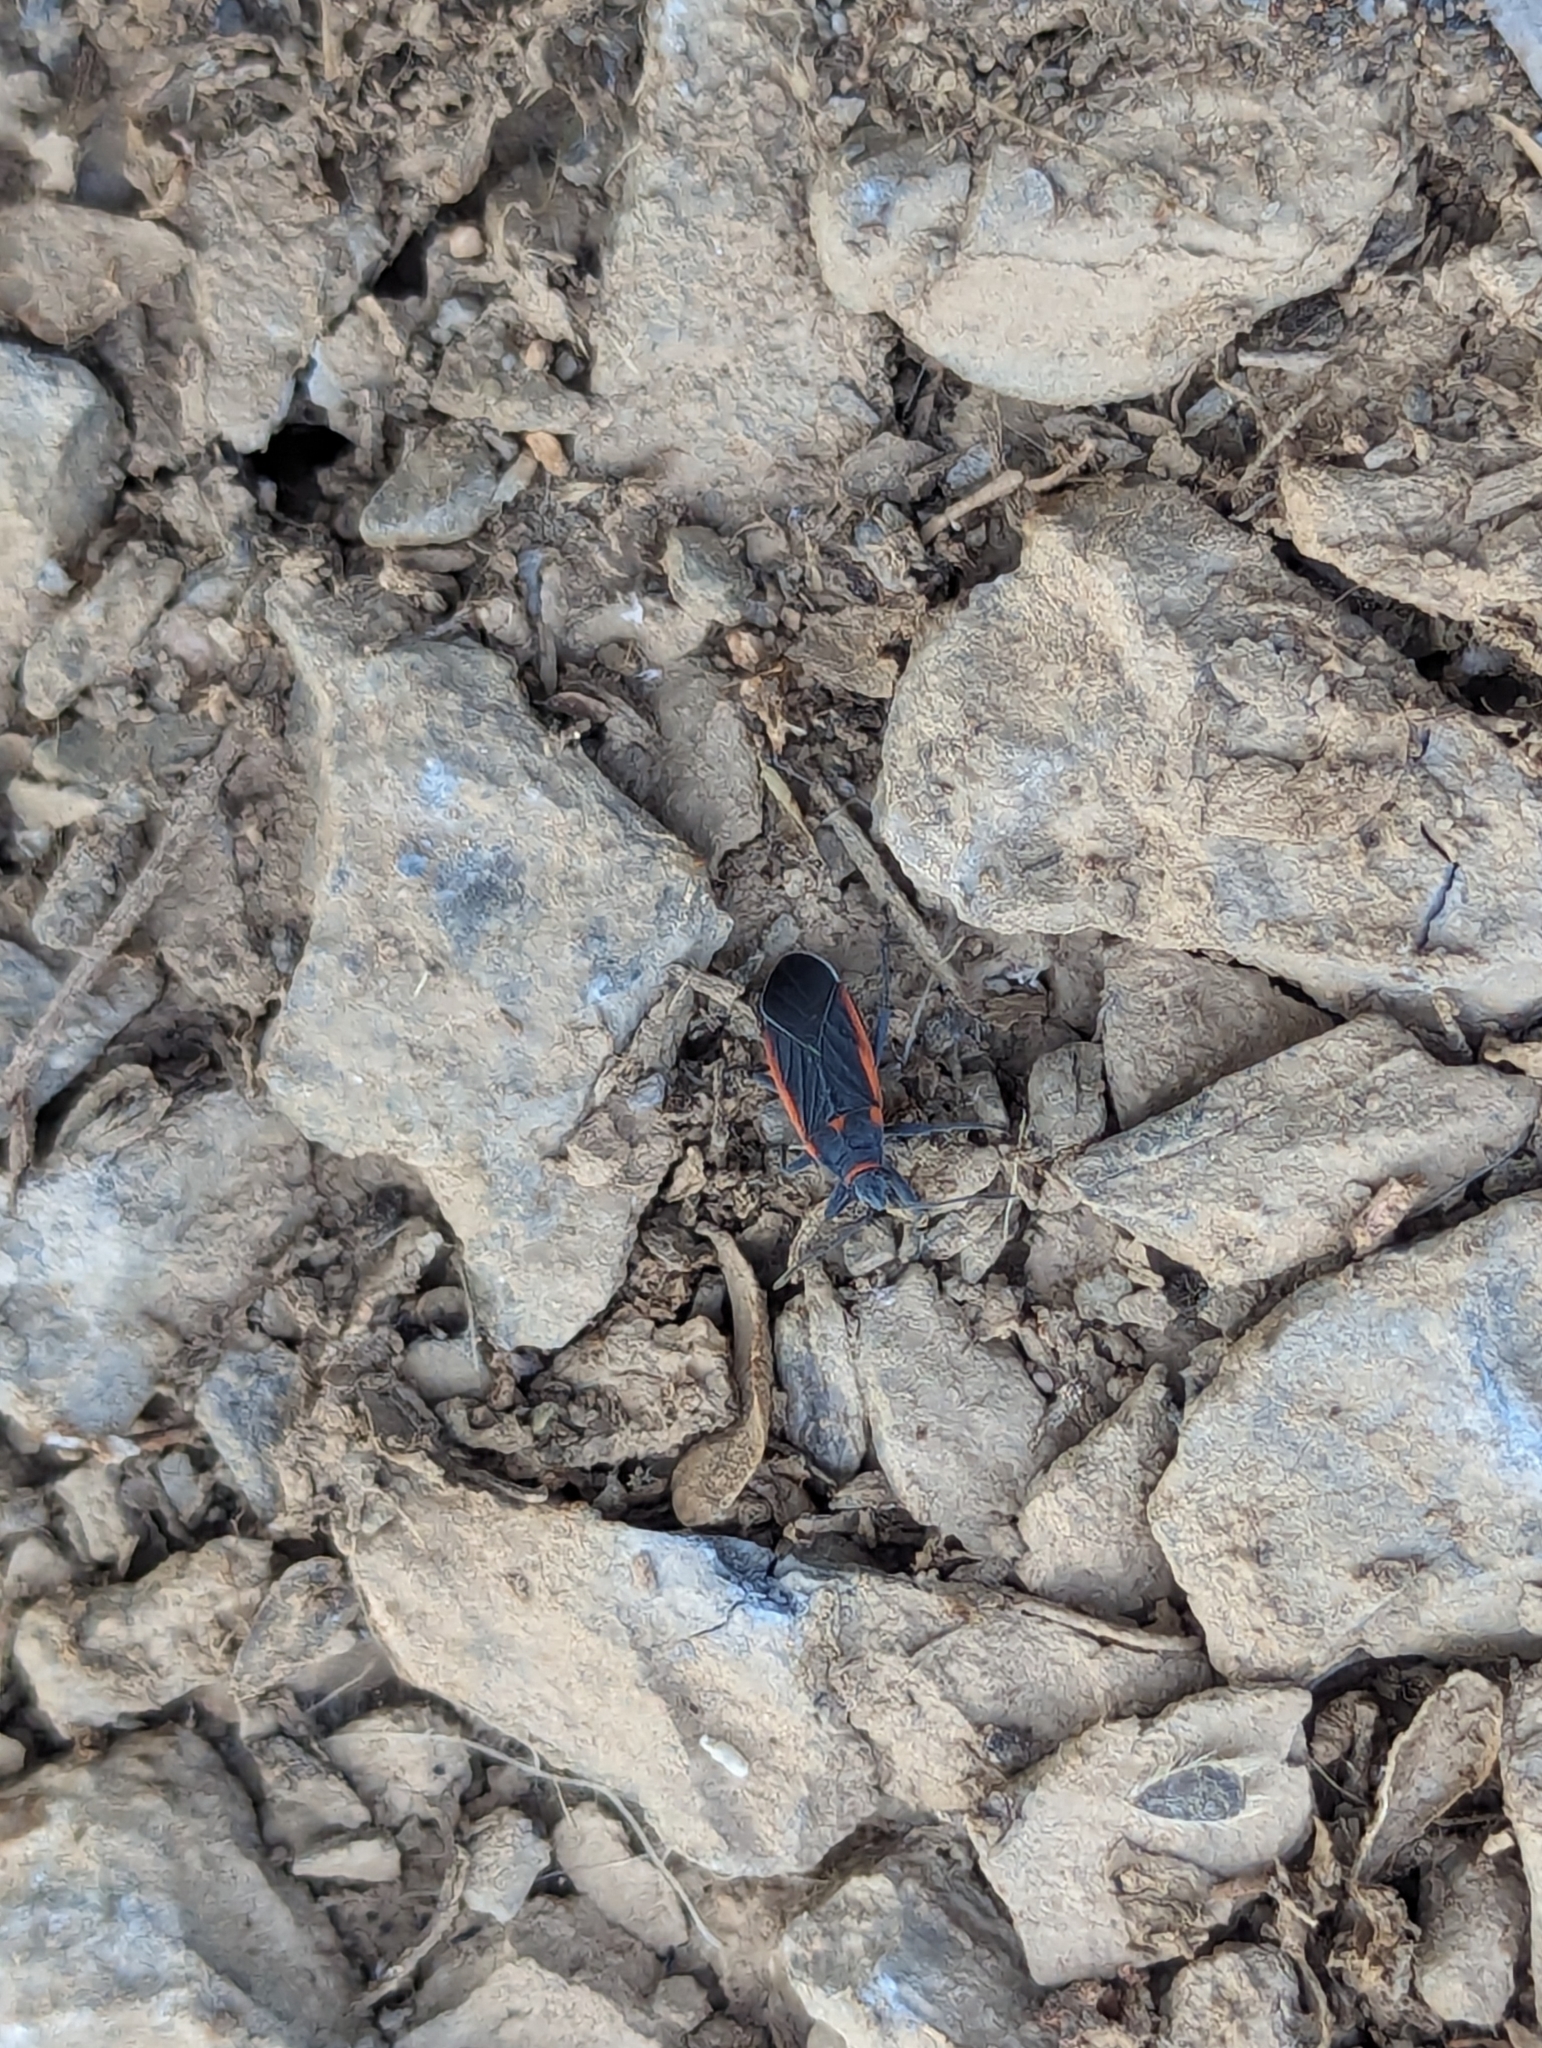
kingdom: Animalia
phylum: Arthropoda
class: Insecta
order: Hemiptera
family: Lygaeidae
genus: Melacoryphus
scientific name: Melacoryphus lateralis
